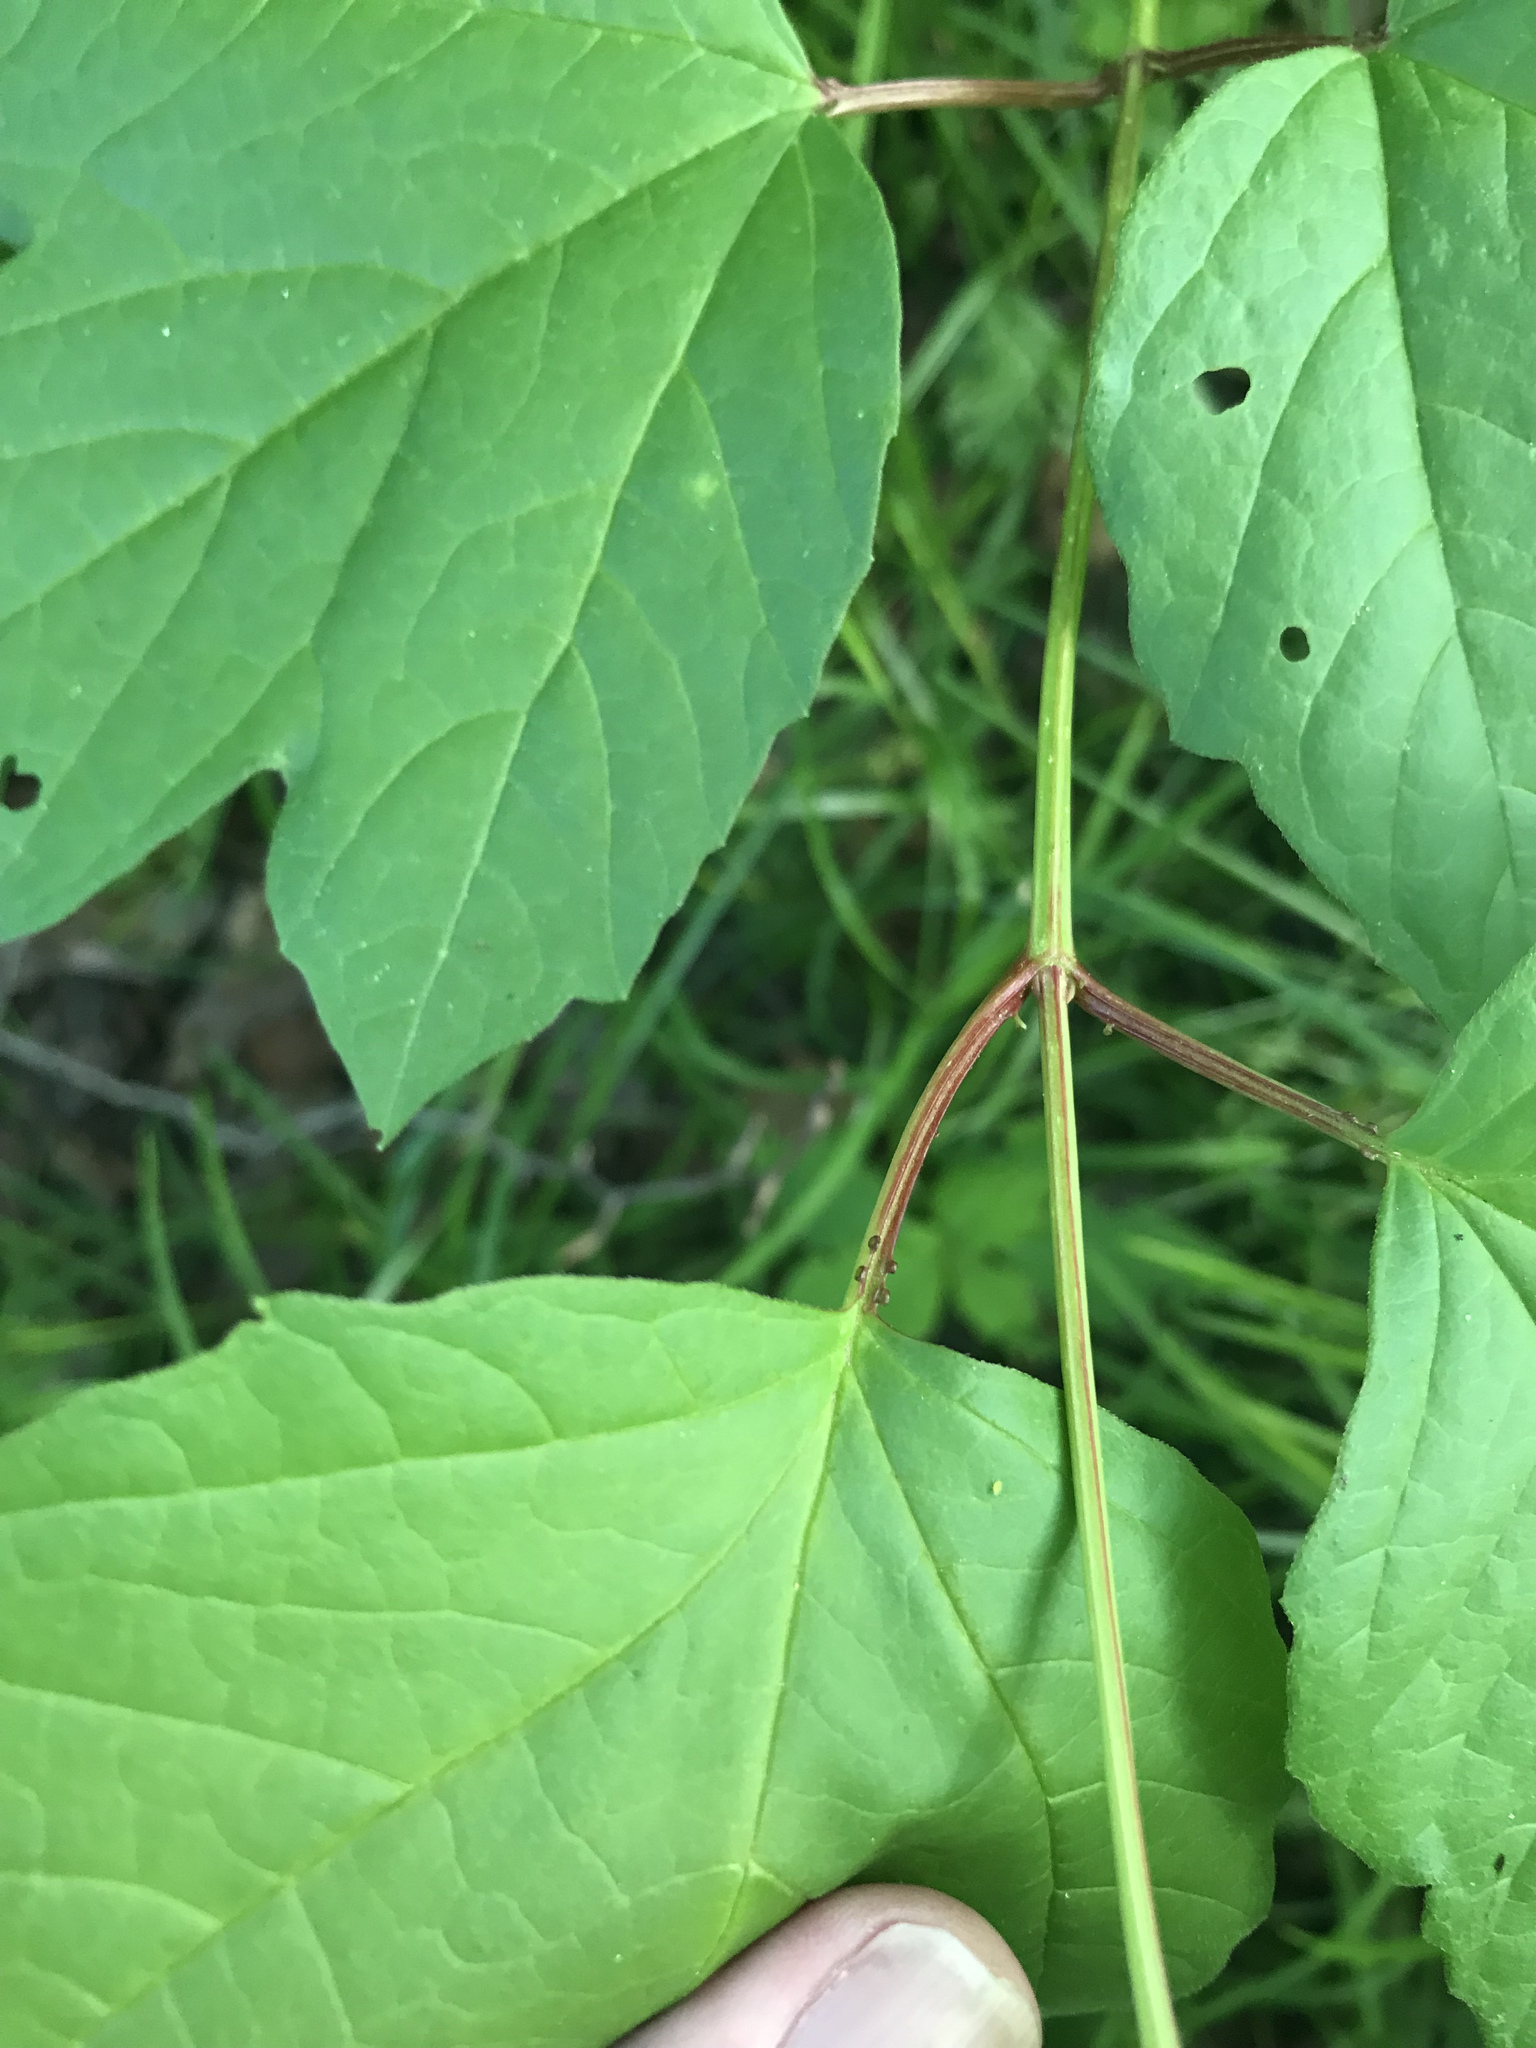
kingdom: Plantae
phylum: Tracheophyta
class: Magnoliopsida
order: Dipsacales
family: Viburnaceae
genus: Viburnum
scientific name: Viburnum opulus
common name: Guelder-rose
